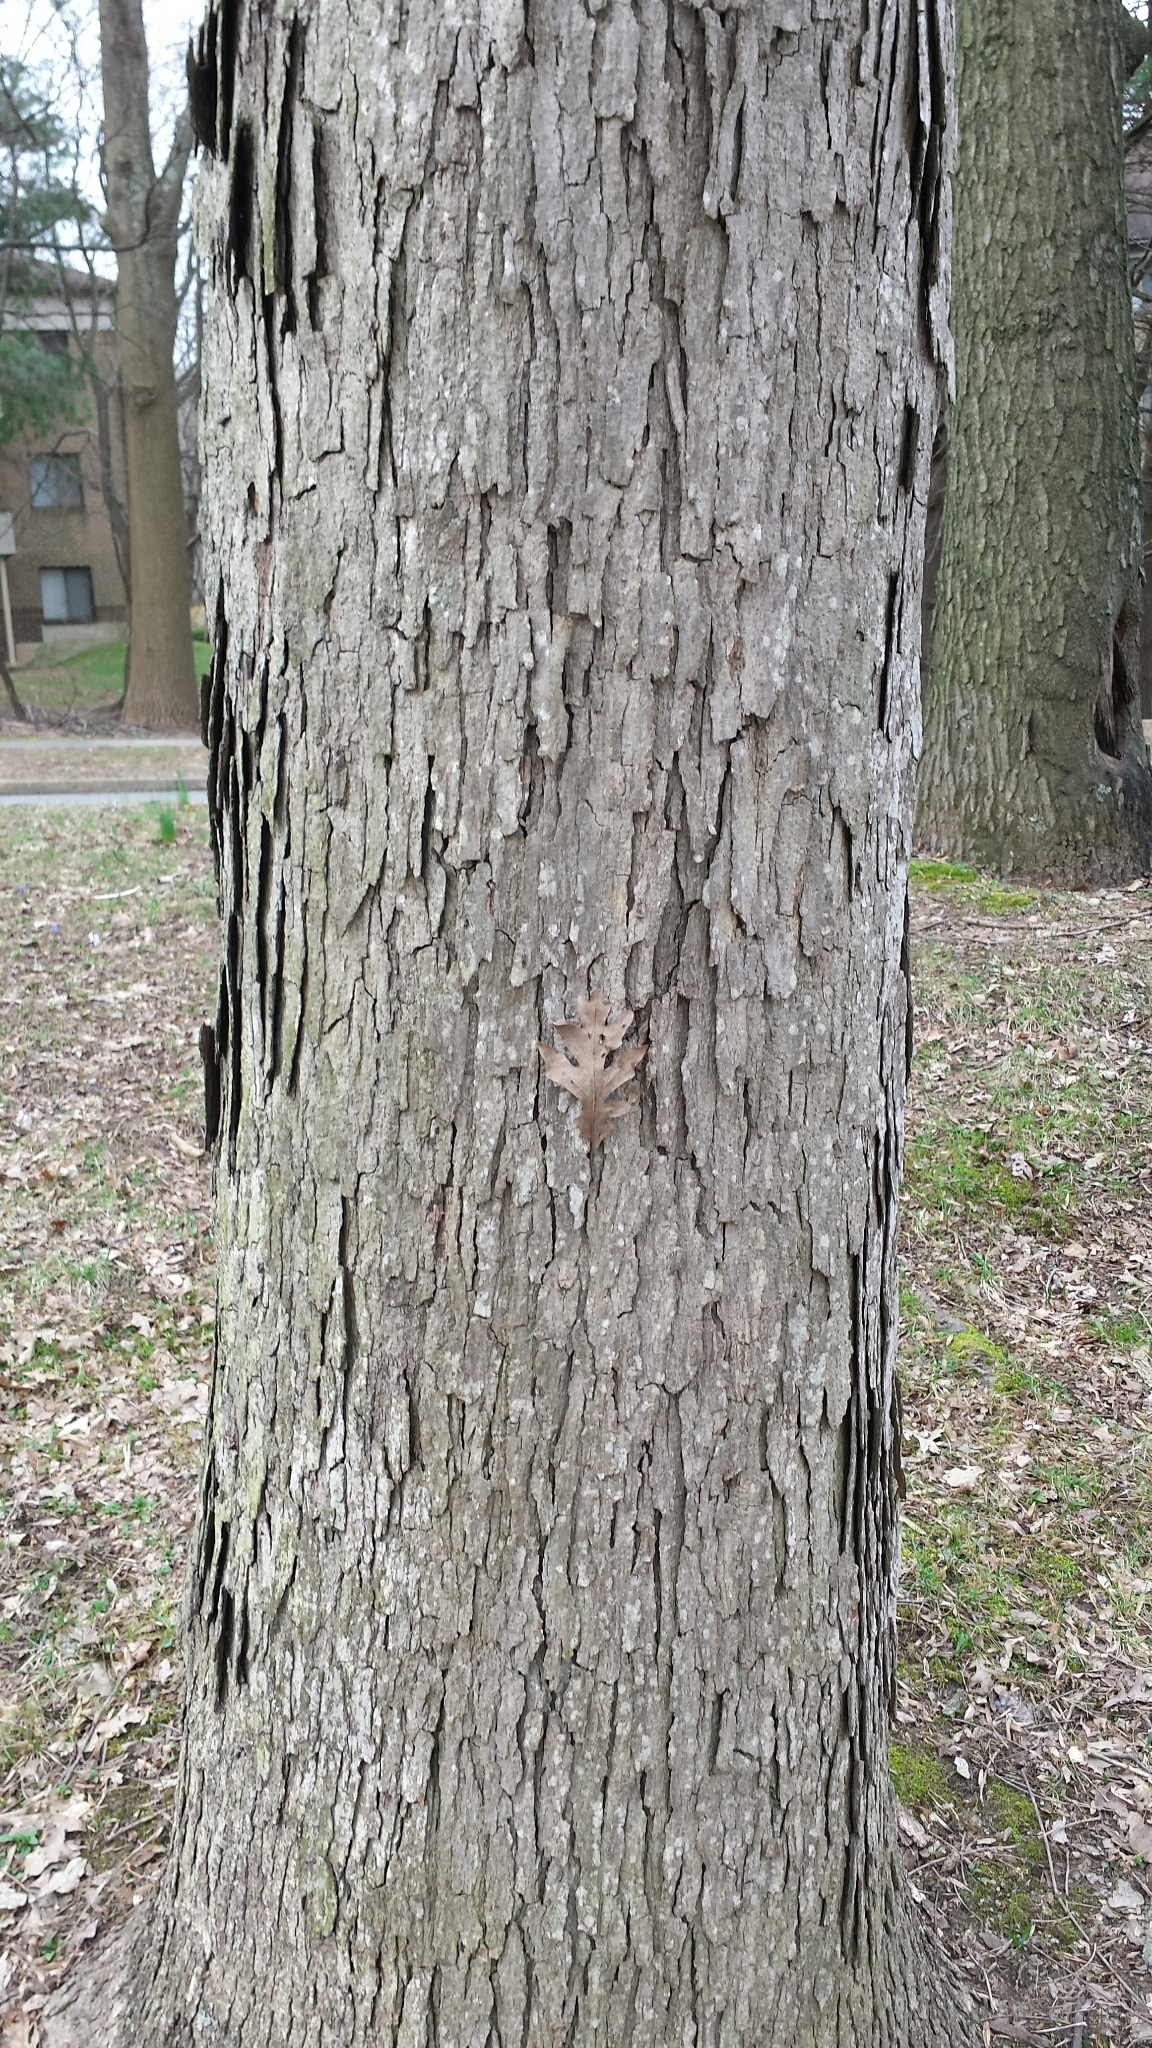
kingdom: Plantae
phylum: Tracheophyta
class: Magnoliopsida
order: Fagales
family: Fagaceae
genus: Quercus
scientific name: Quercus alba
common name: White oak
